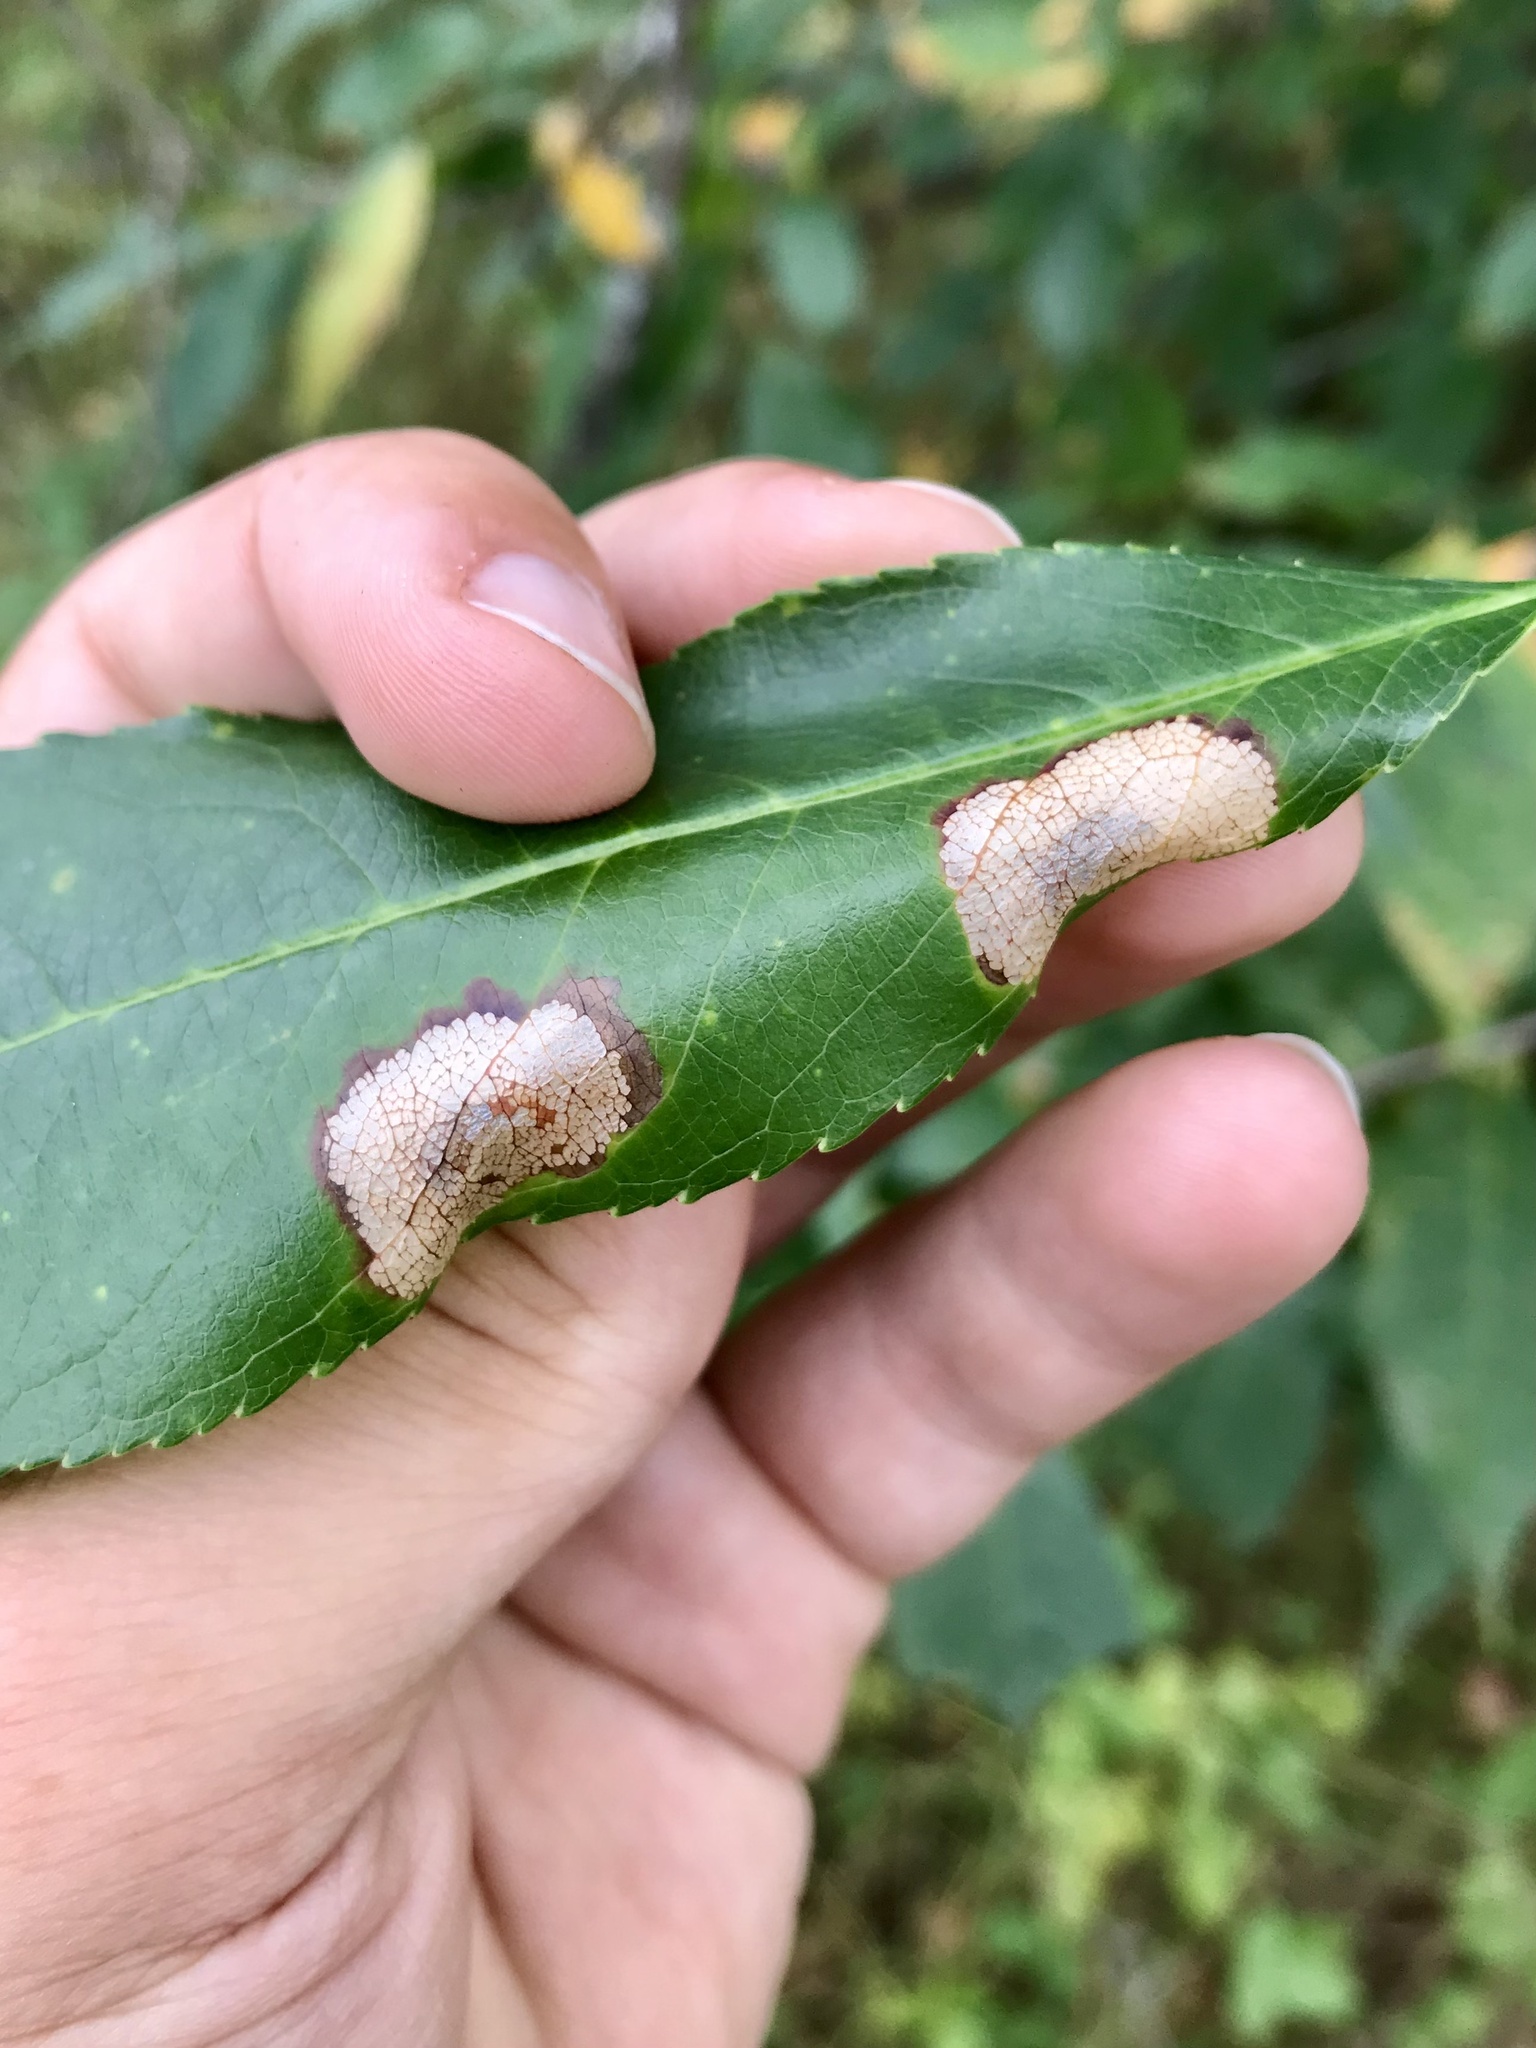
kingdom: Animalia
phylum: Arthropoda
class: Insecta
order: Lepidoptera
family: Gracillariidae
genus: Parornix
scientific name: Parornix geminatella
